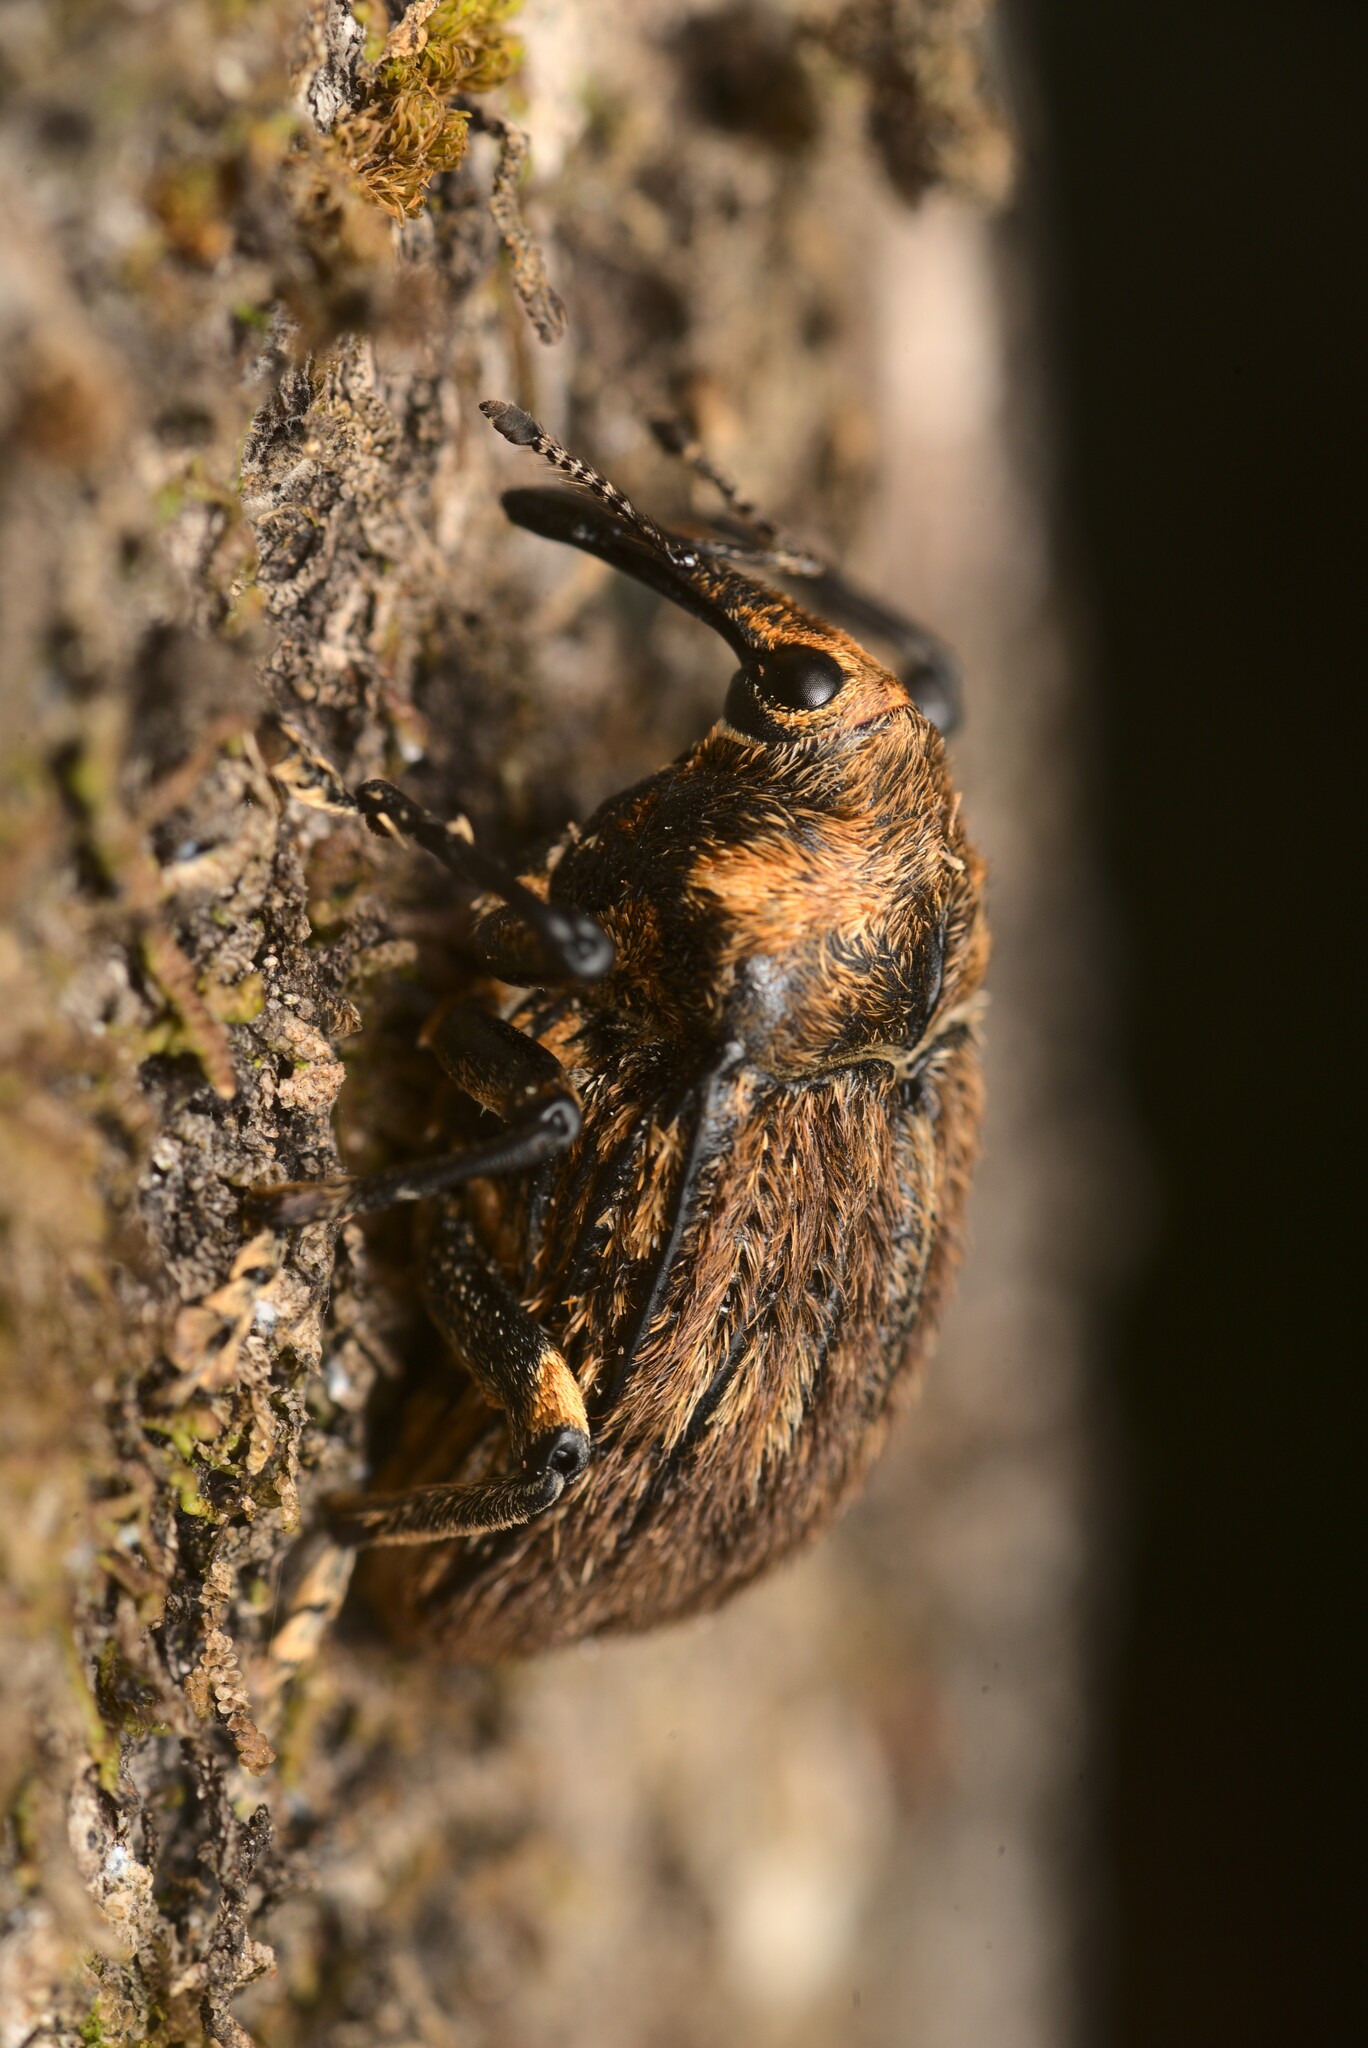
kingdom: Animalia
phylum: Arthropoda
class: Insecta
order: Coleoptera
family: Curculionidae
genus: Rhynchodes
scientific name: Rhynchodes ursus
